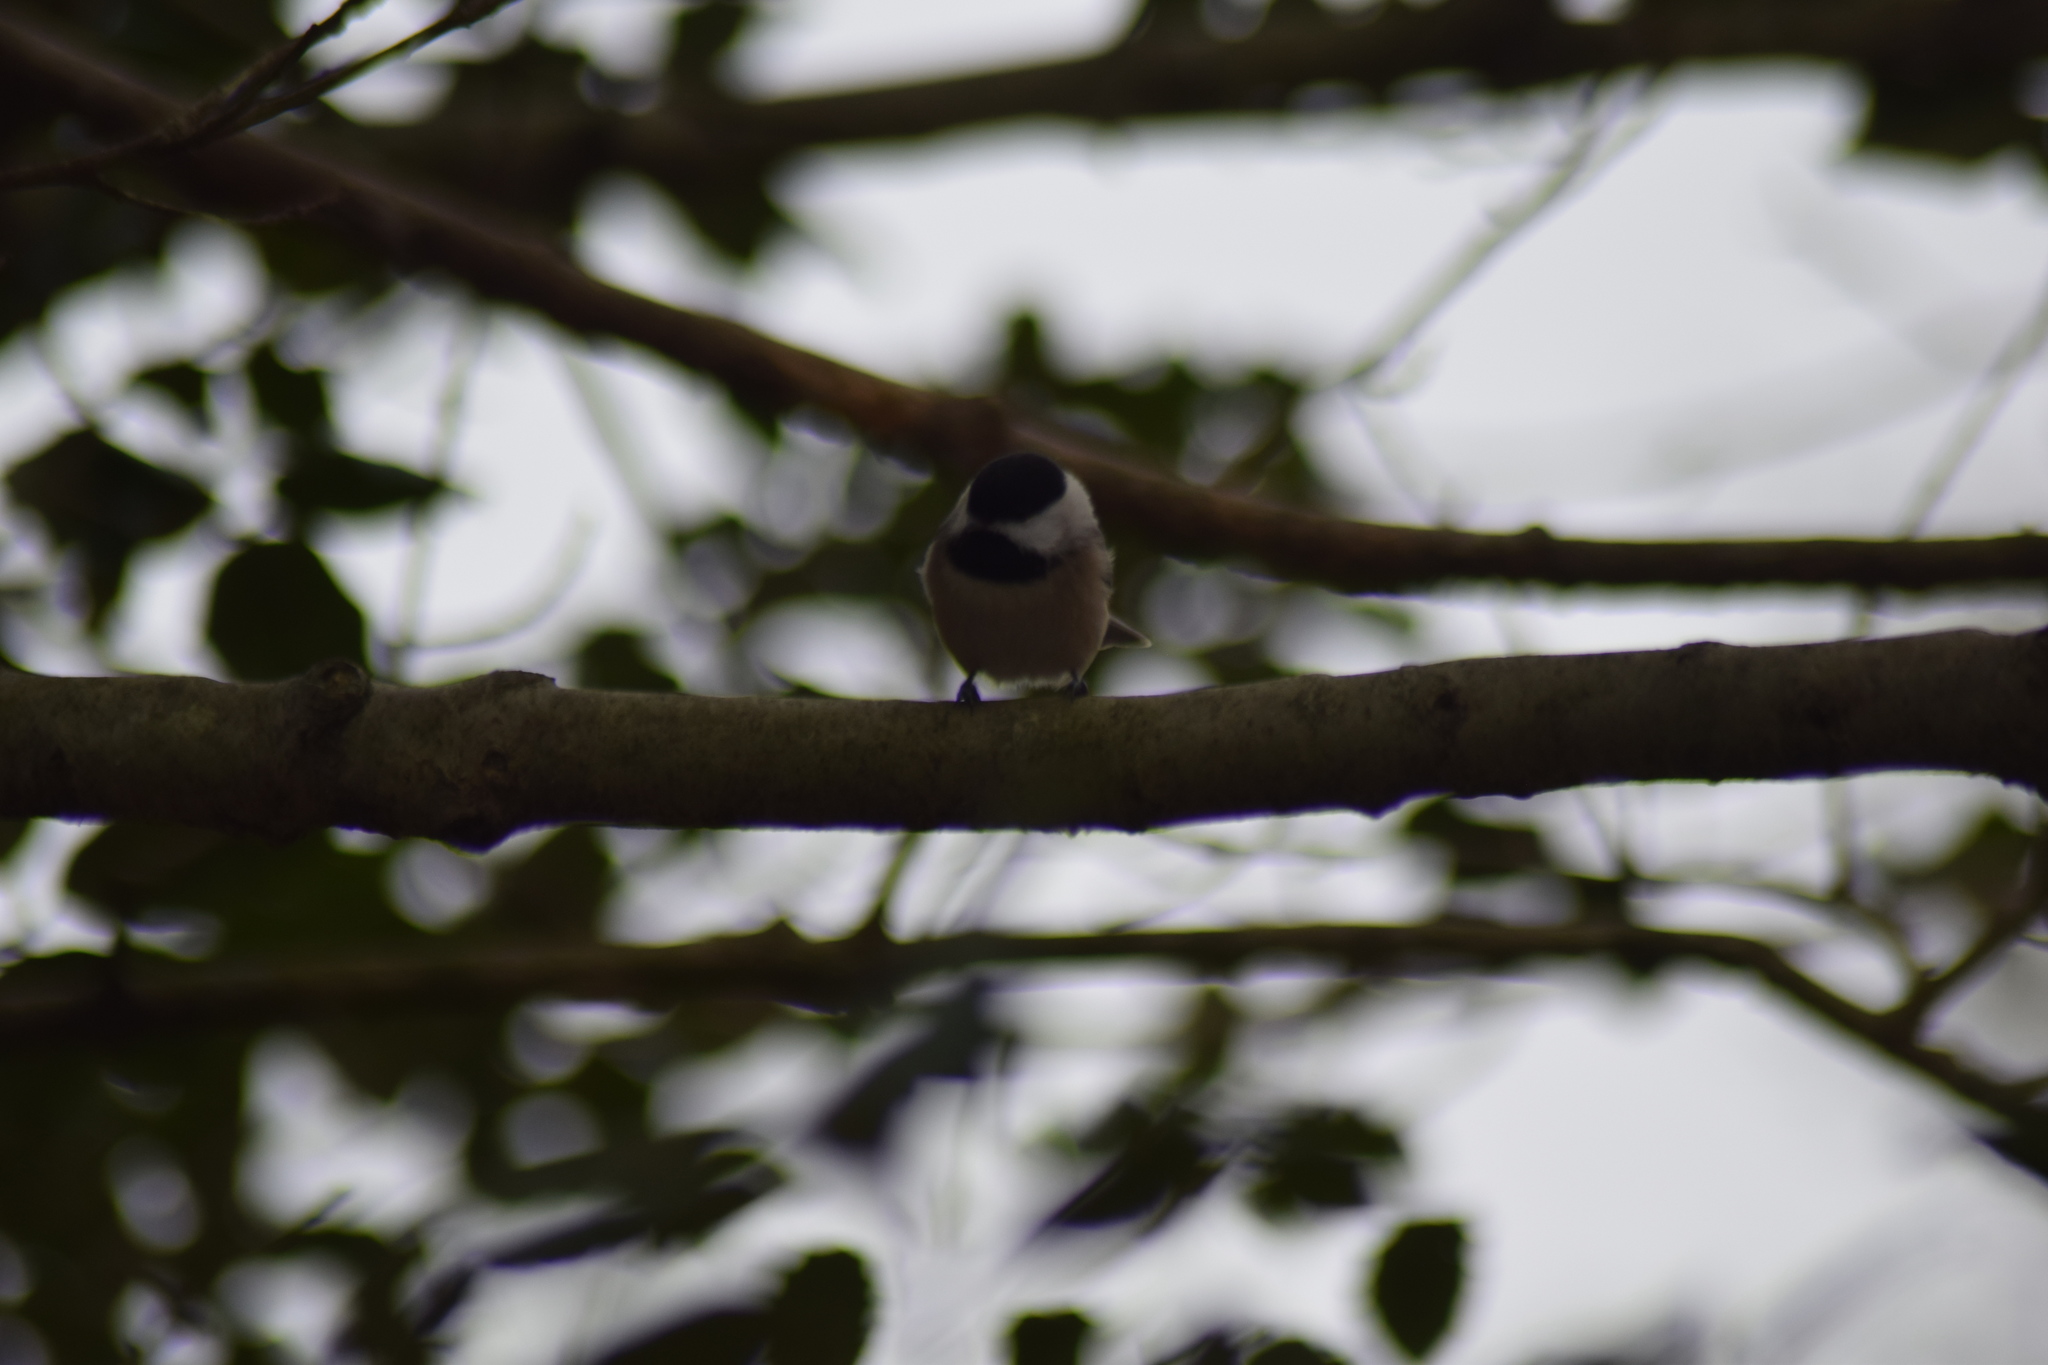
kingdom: Animalia
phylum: Chordata
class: Aves
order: Passeriformes
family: Paridae
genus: Poecile
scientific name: Poecile carolinensis
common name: Carolina chickadee
